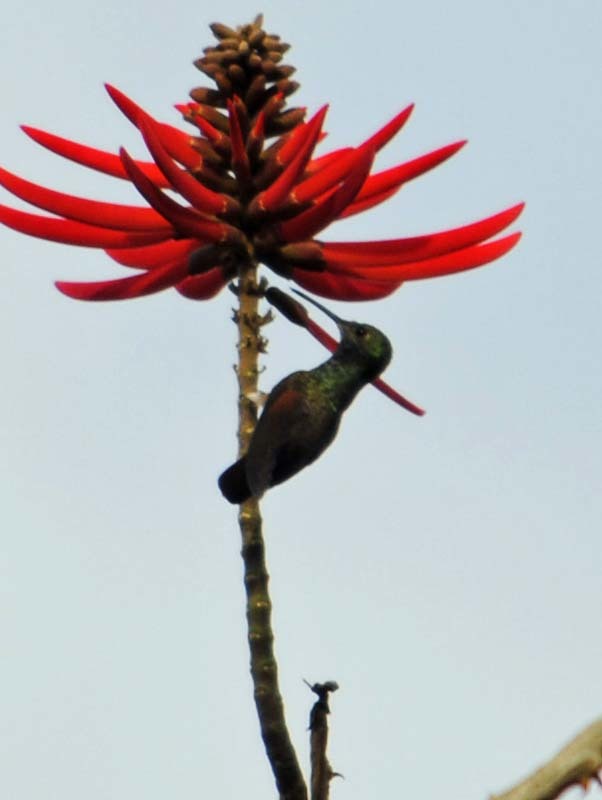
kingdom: Animalia
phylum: Chordata
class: Aves
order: Apodiformes
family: Trochilidae
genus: Saucerottia
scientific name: Saucerottia beryllina
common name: Berylline hummingbird
